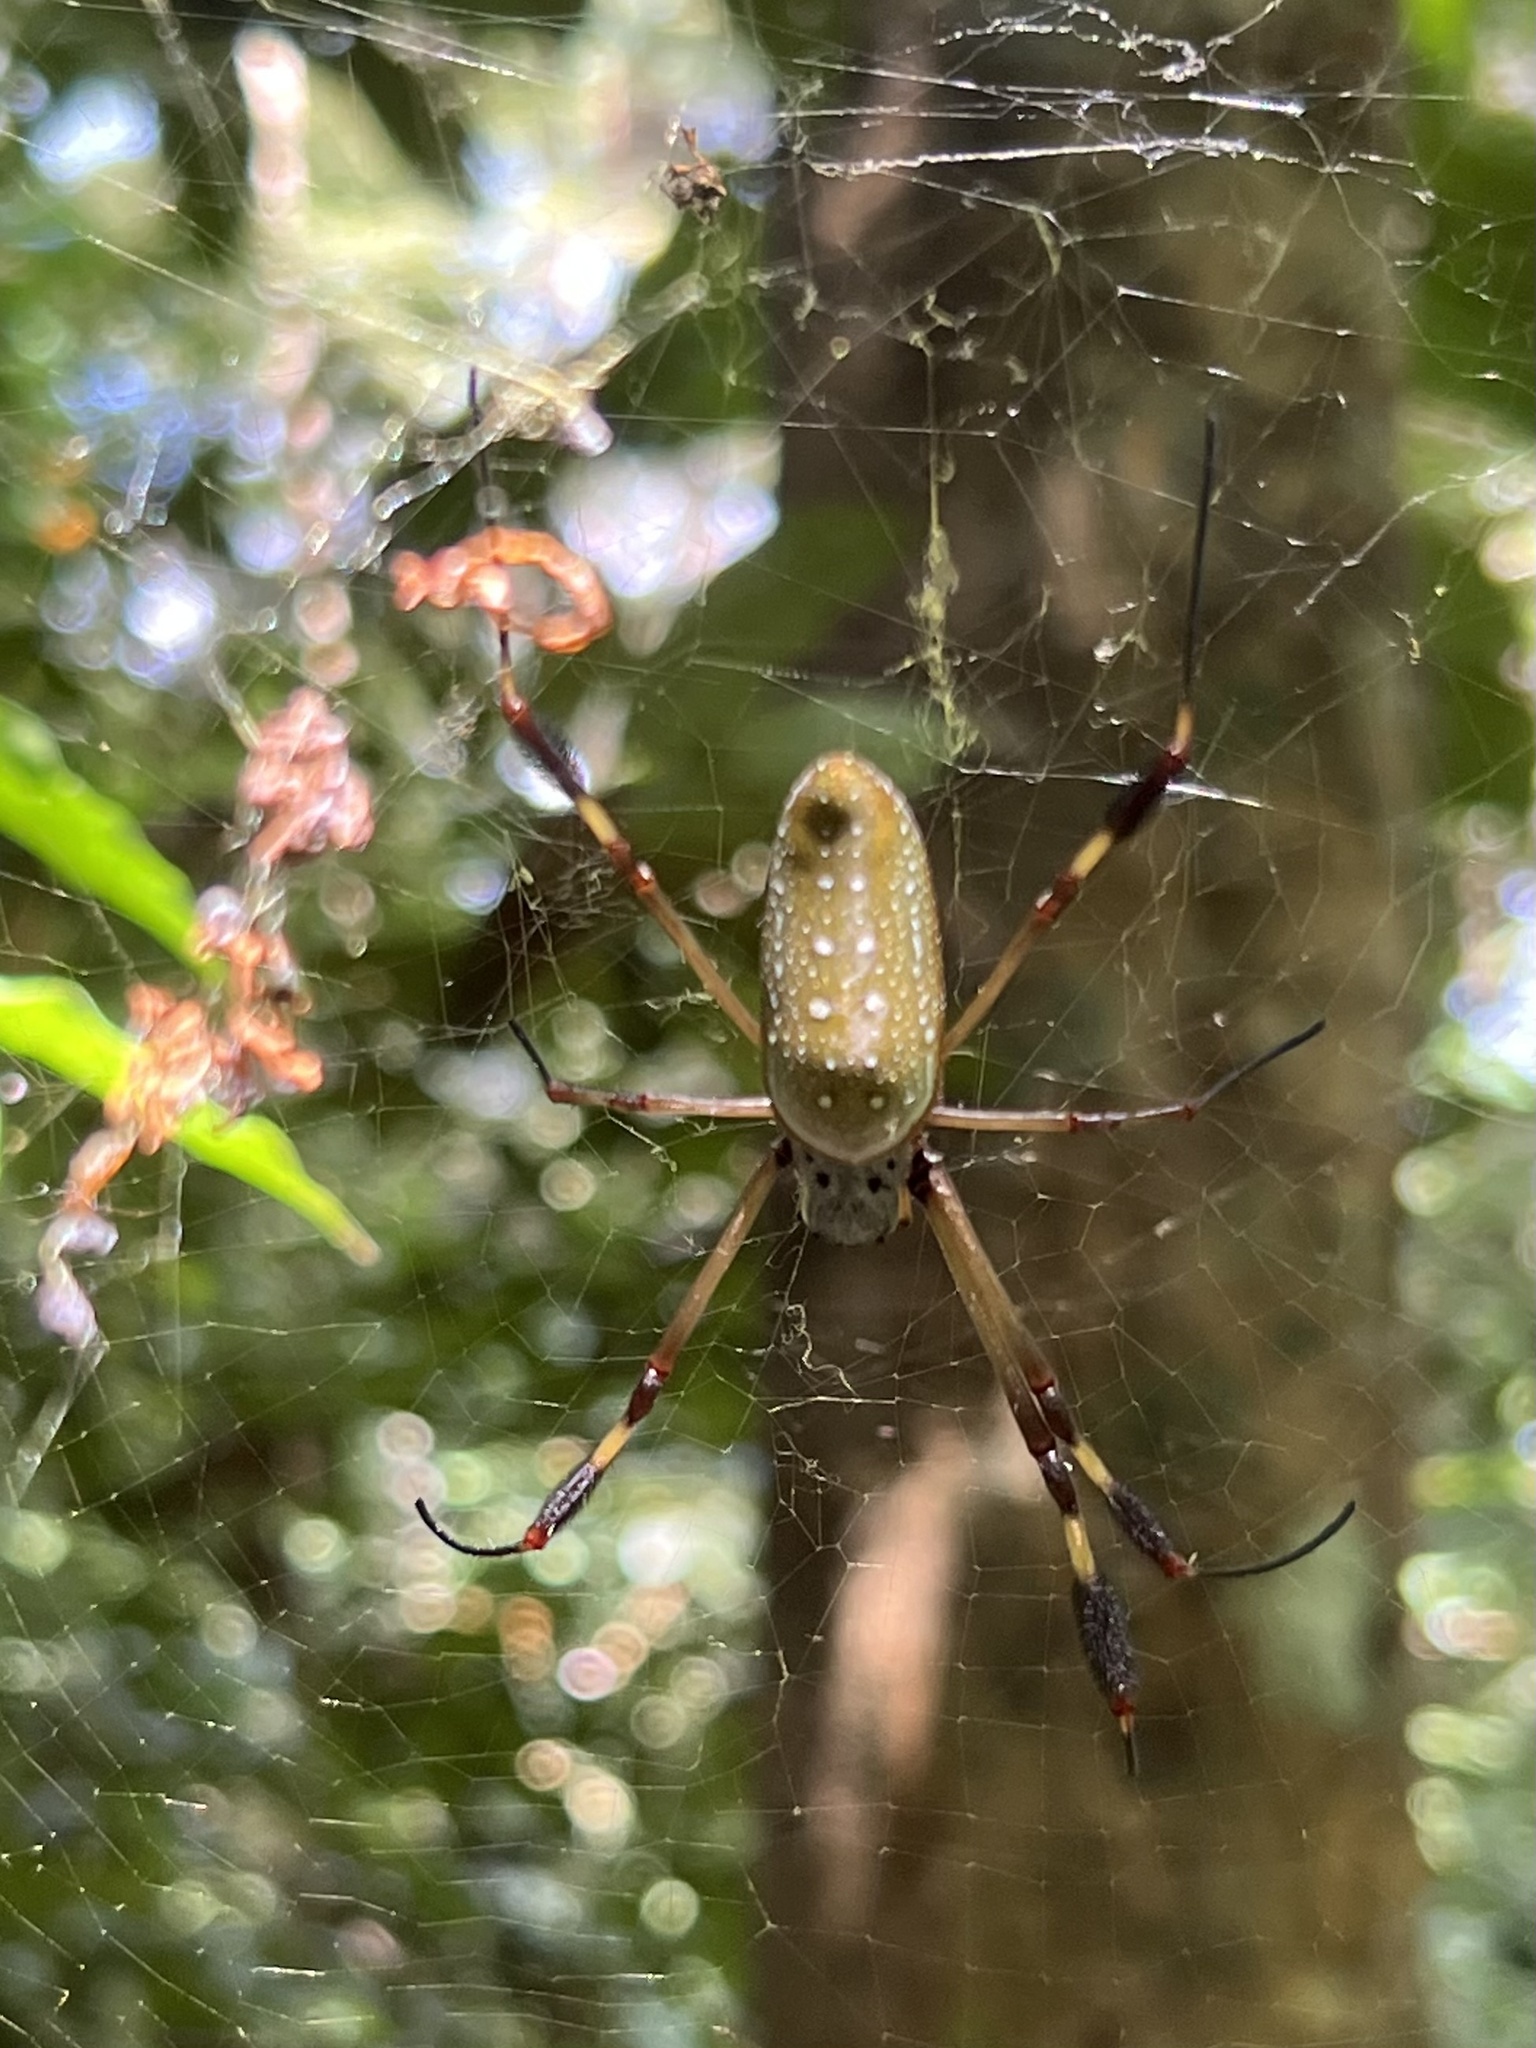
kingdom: Animalia
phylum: Arthropoda
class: Arachnida
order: Araneae
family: Araneidae
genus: Trichonephila
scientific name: Trichonephila clavipes
